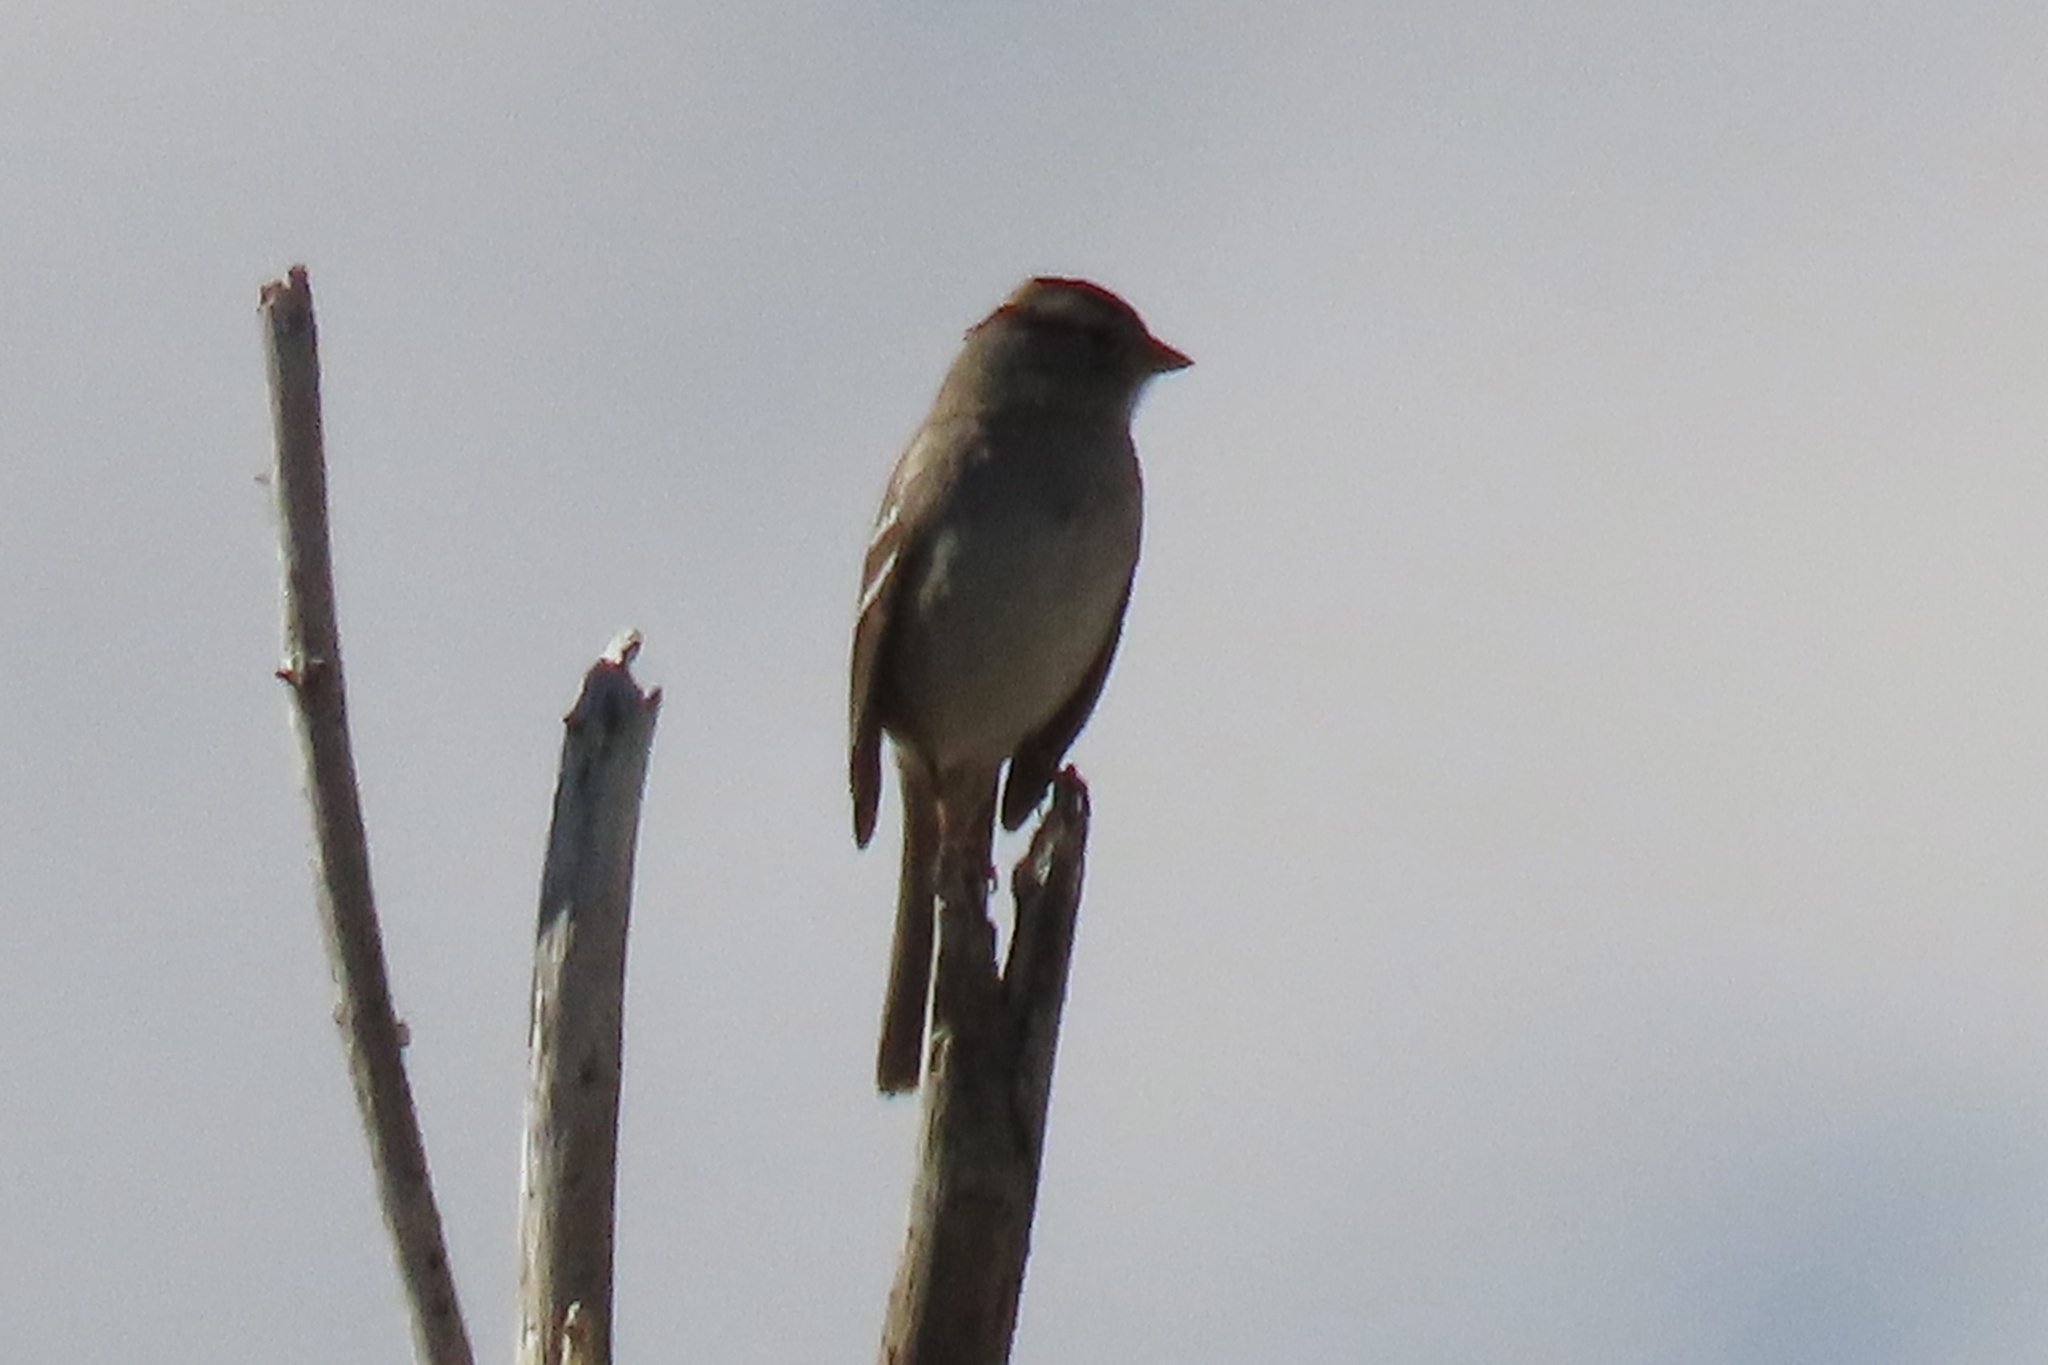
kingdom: Animalia
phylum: Chordata
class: Aves
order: Passeriformes
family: Passerellidae
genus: Zonotrichia
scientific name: Zonotrichia leucophrys
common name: White-crowned sparrow
